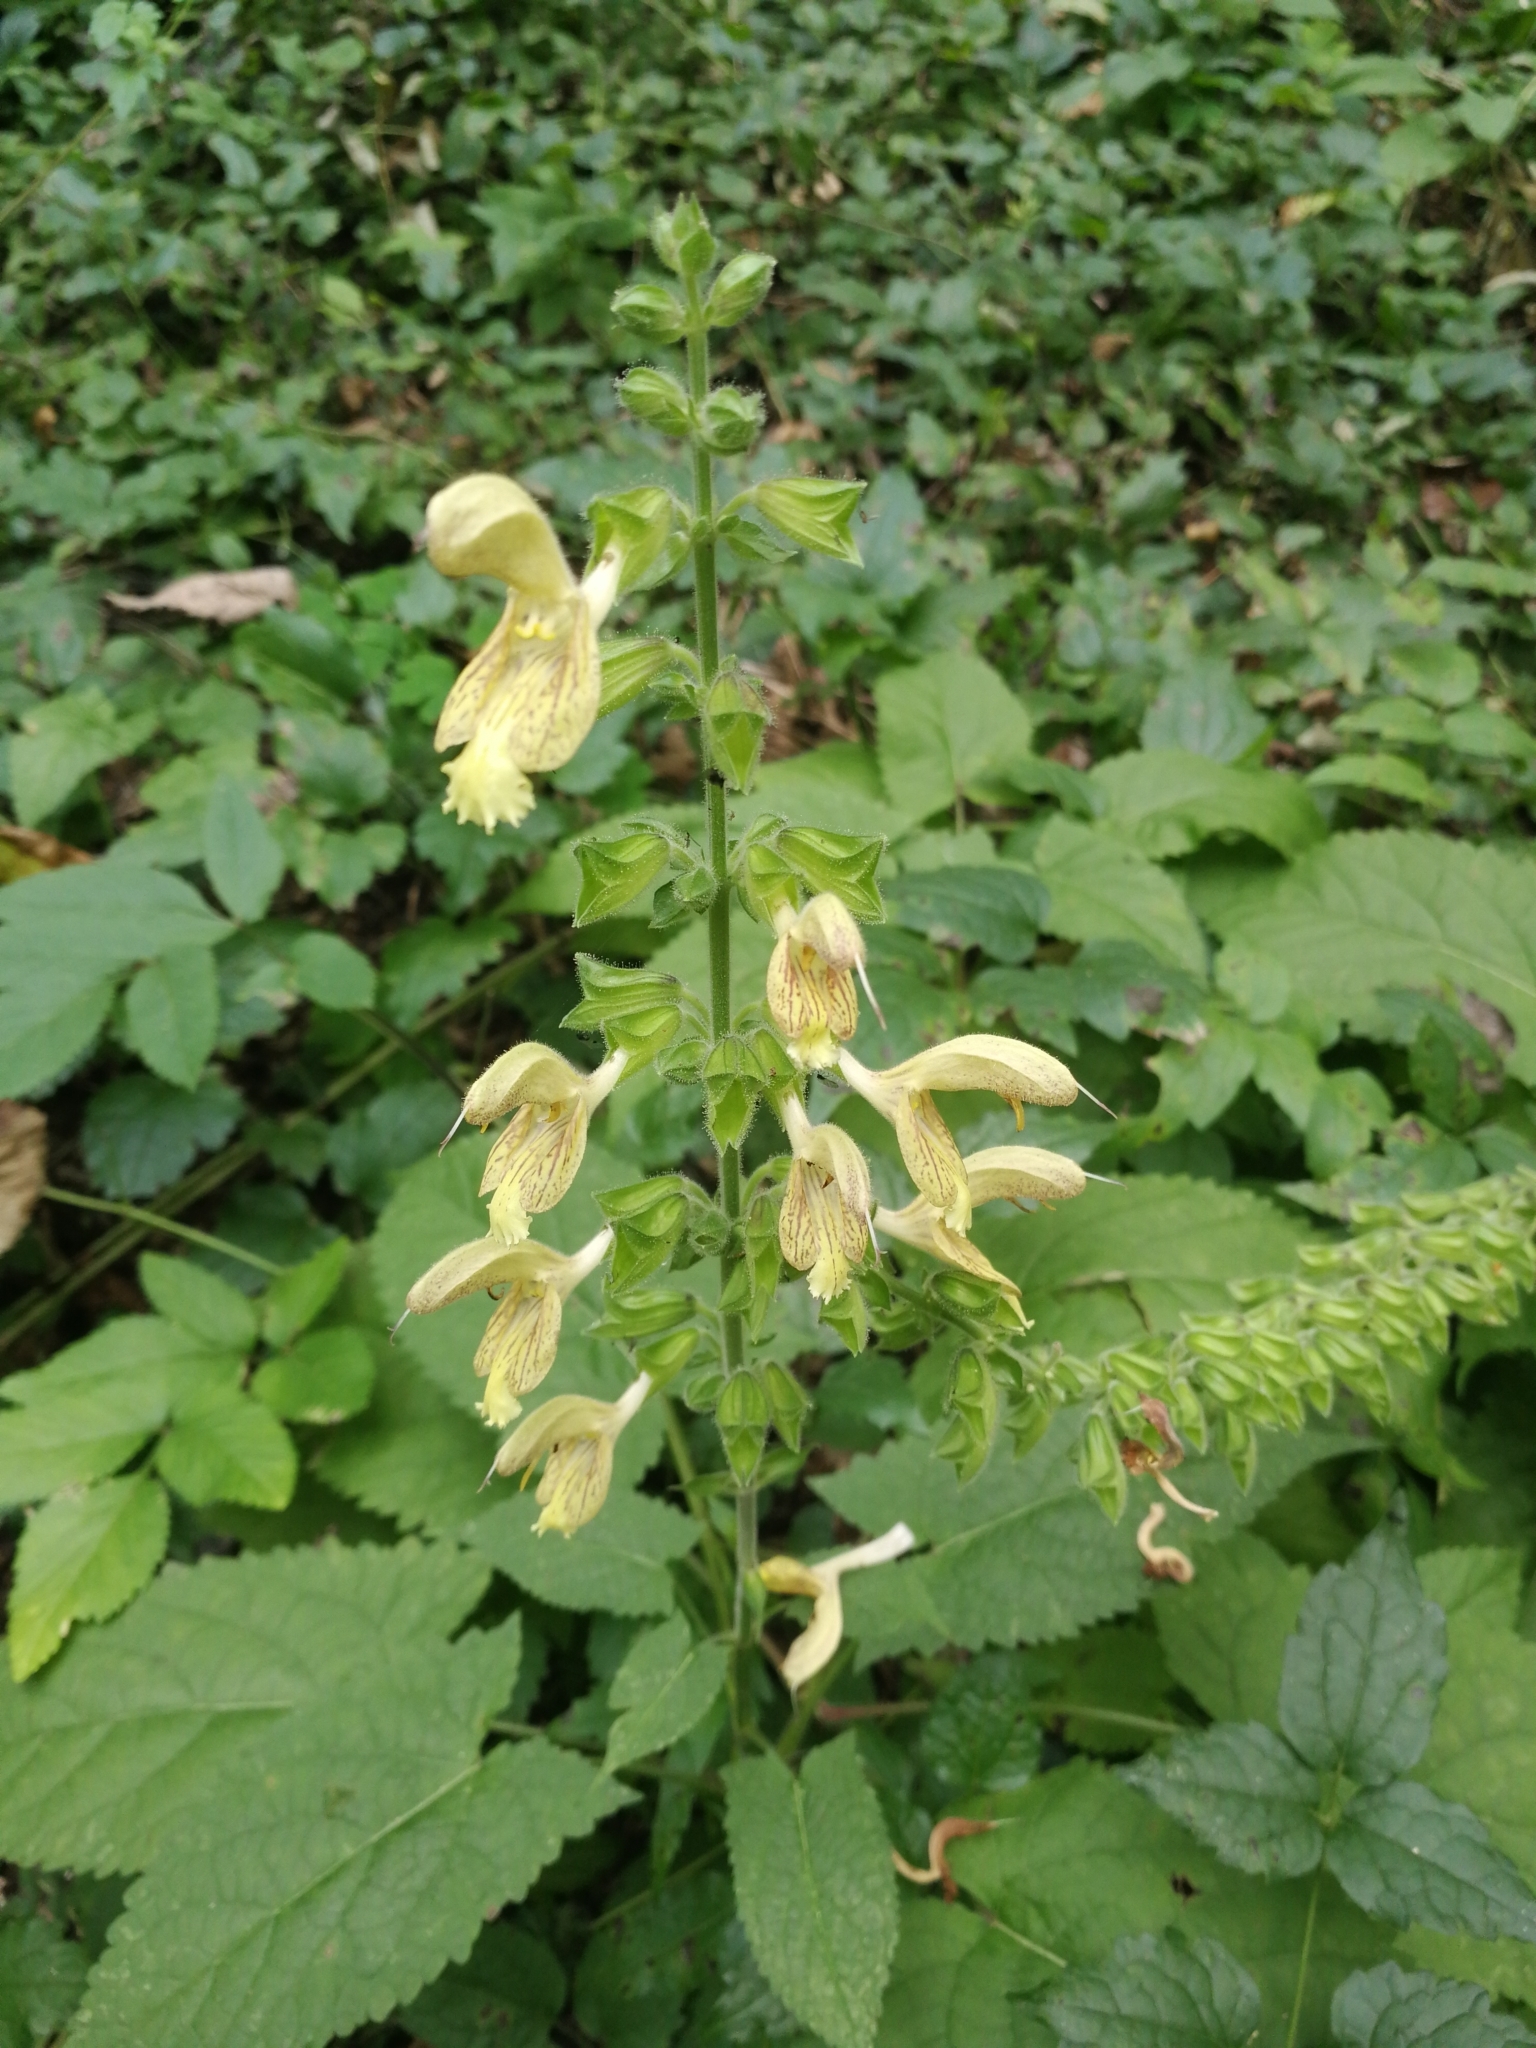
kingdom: Plantae
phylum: Tracheophyta
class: Magnoliopsida
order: Lamiales
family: Lamiaceae
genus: Salvia
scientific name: Salvia glutinosa
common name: Sticky clary
